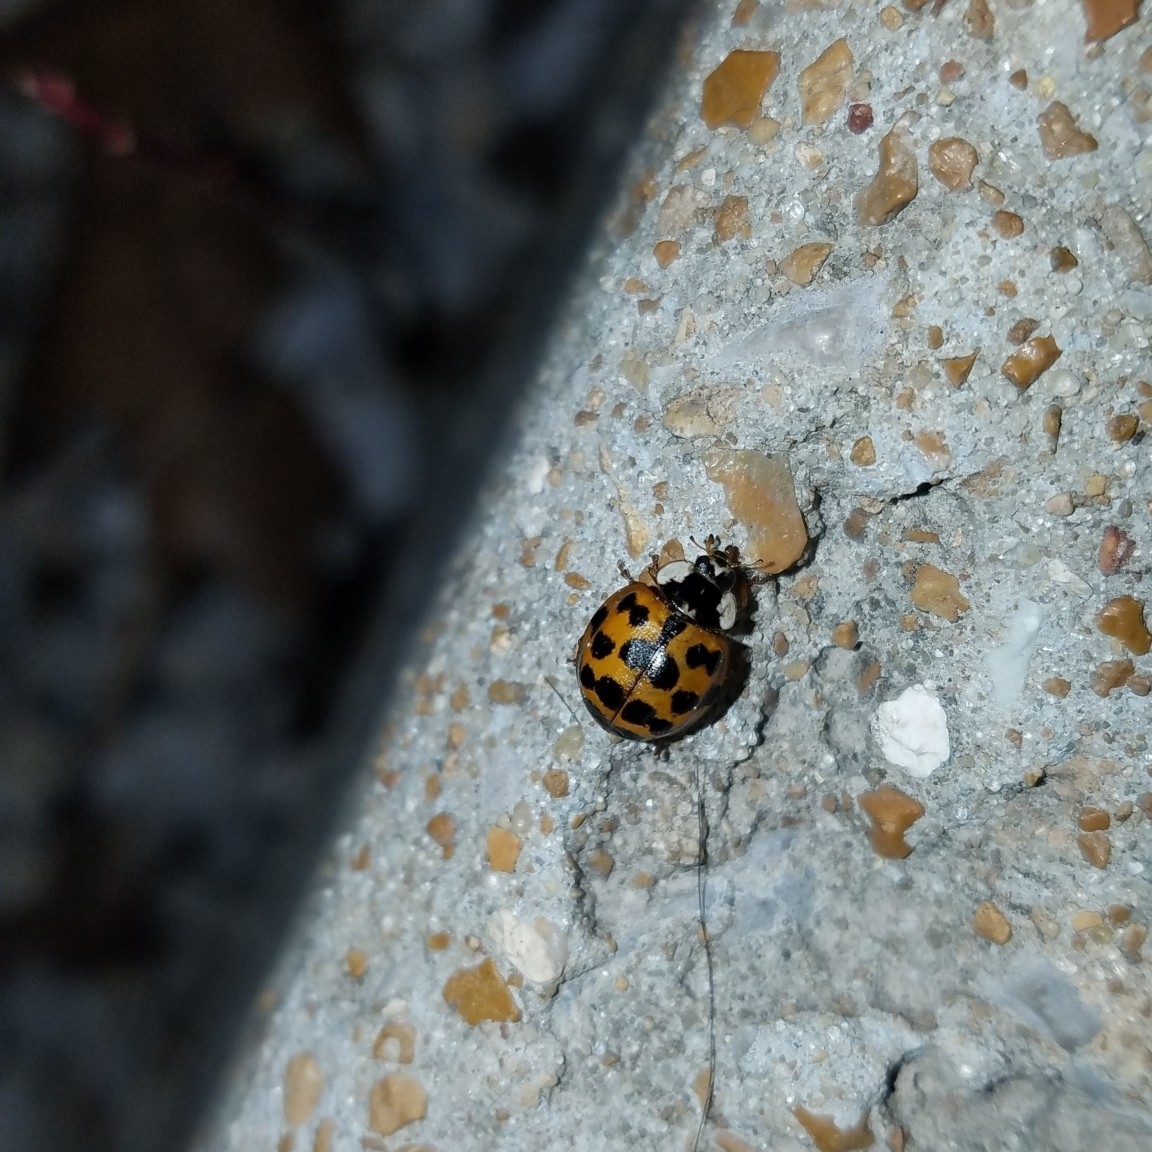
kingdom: Animalia
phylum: Arthropoda
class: Insecta
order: Coleoptera
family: Coccinellidae
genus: Harmonia
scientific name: Harmonia axyridis
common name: Harlequin ladybird
